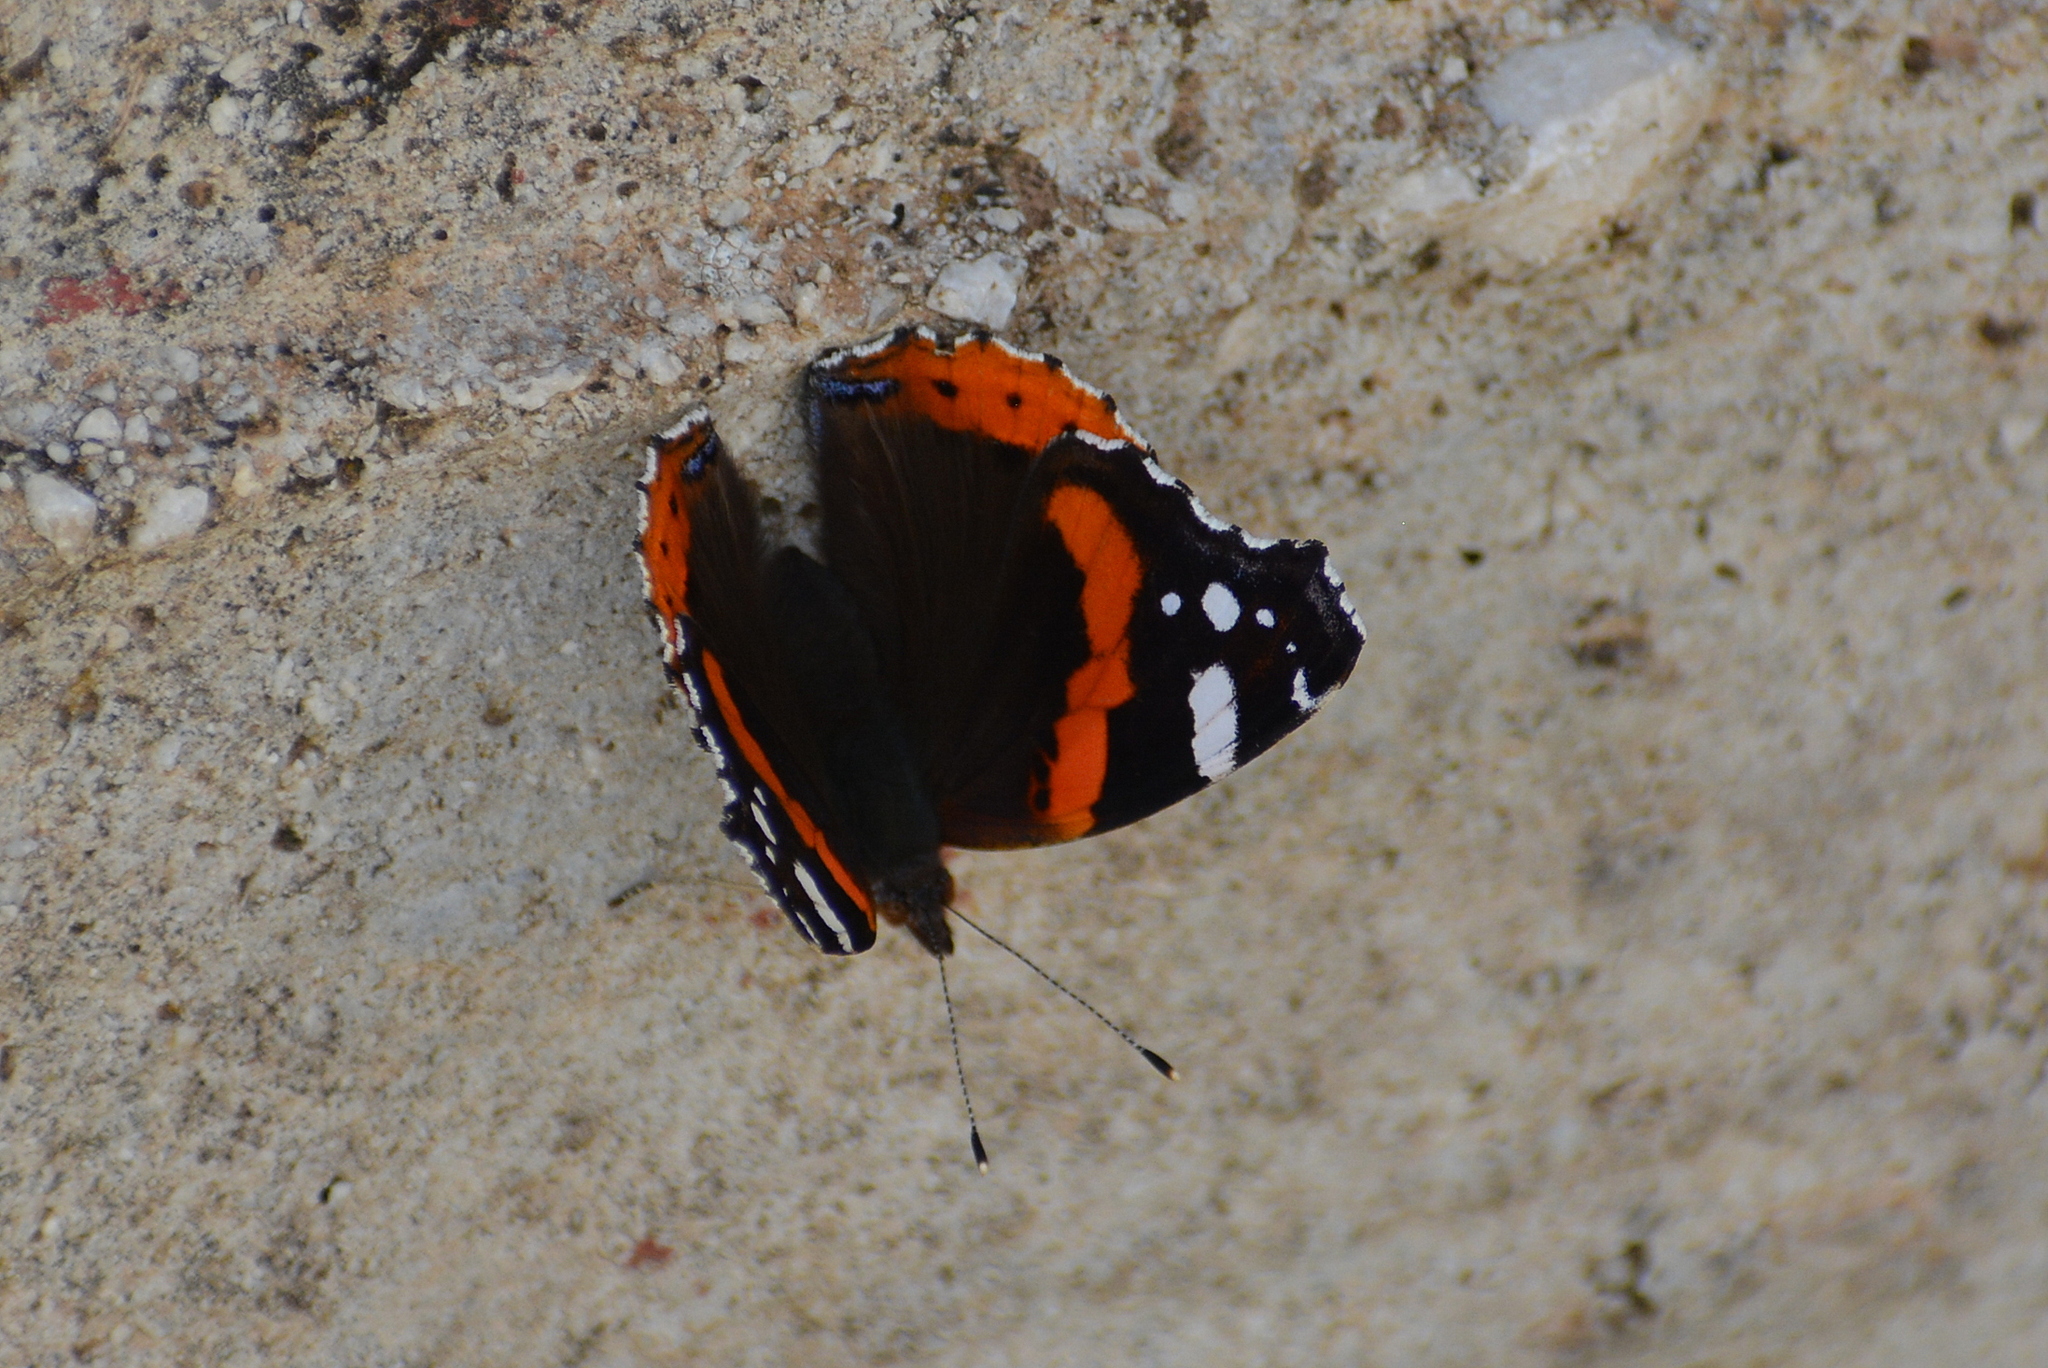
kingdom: Animalia
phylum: Arthropoda
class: Insecta
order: Lepidoptera
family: Nymphalidae
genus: Vanessa
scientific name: Vanessa atalanta
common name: Red admiral
